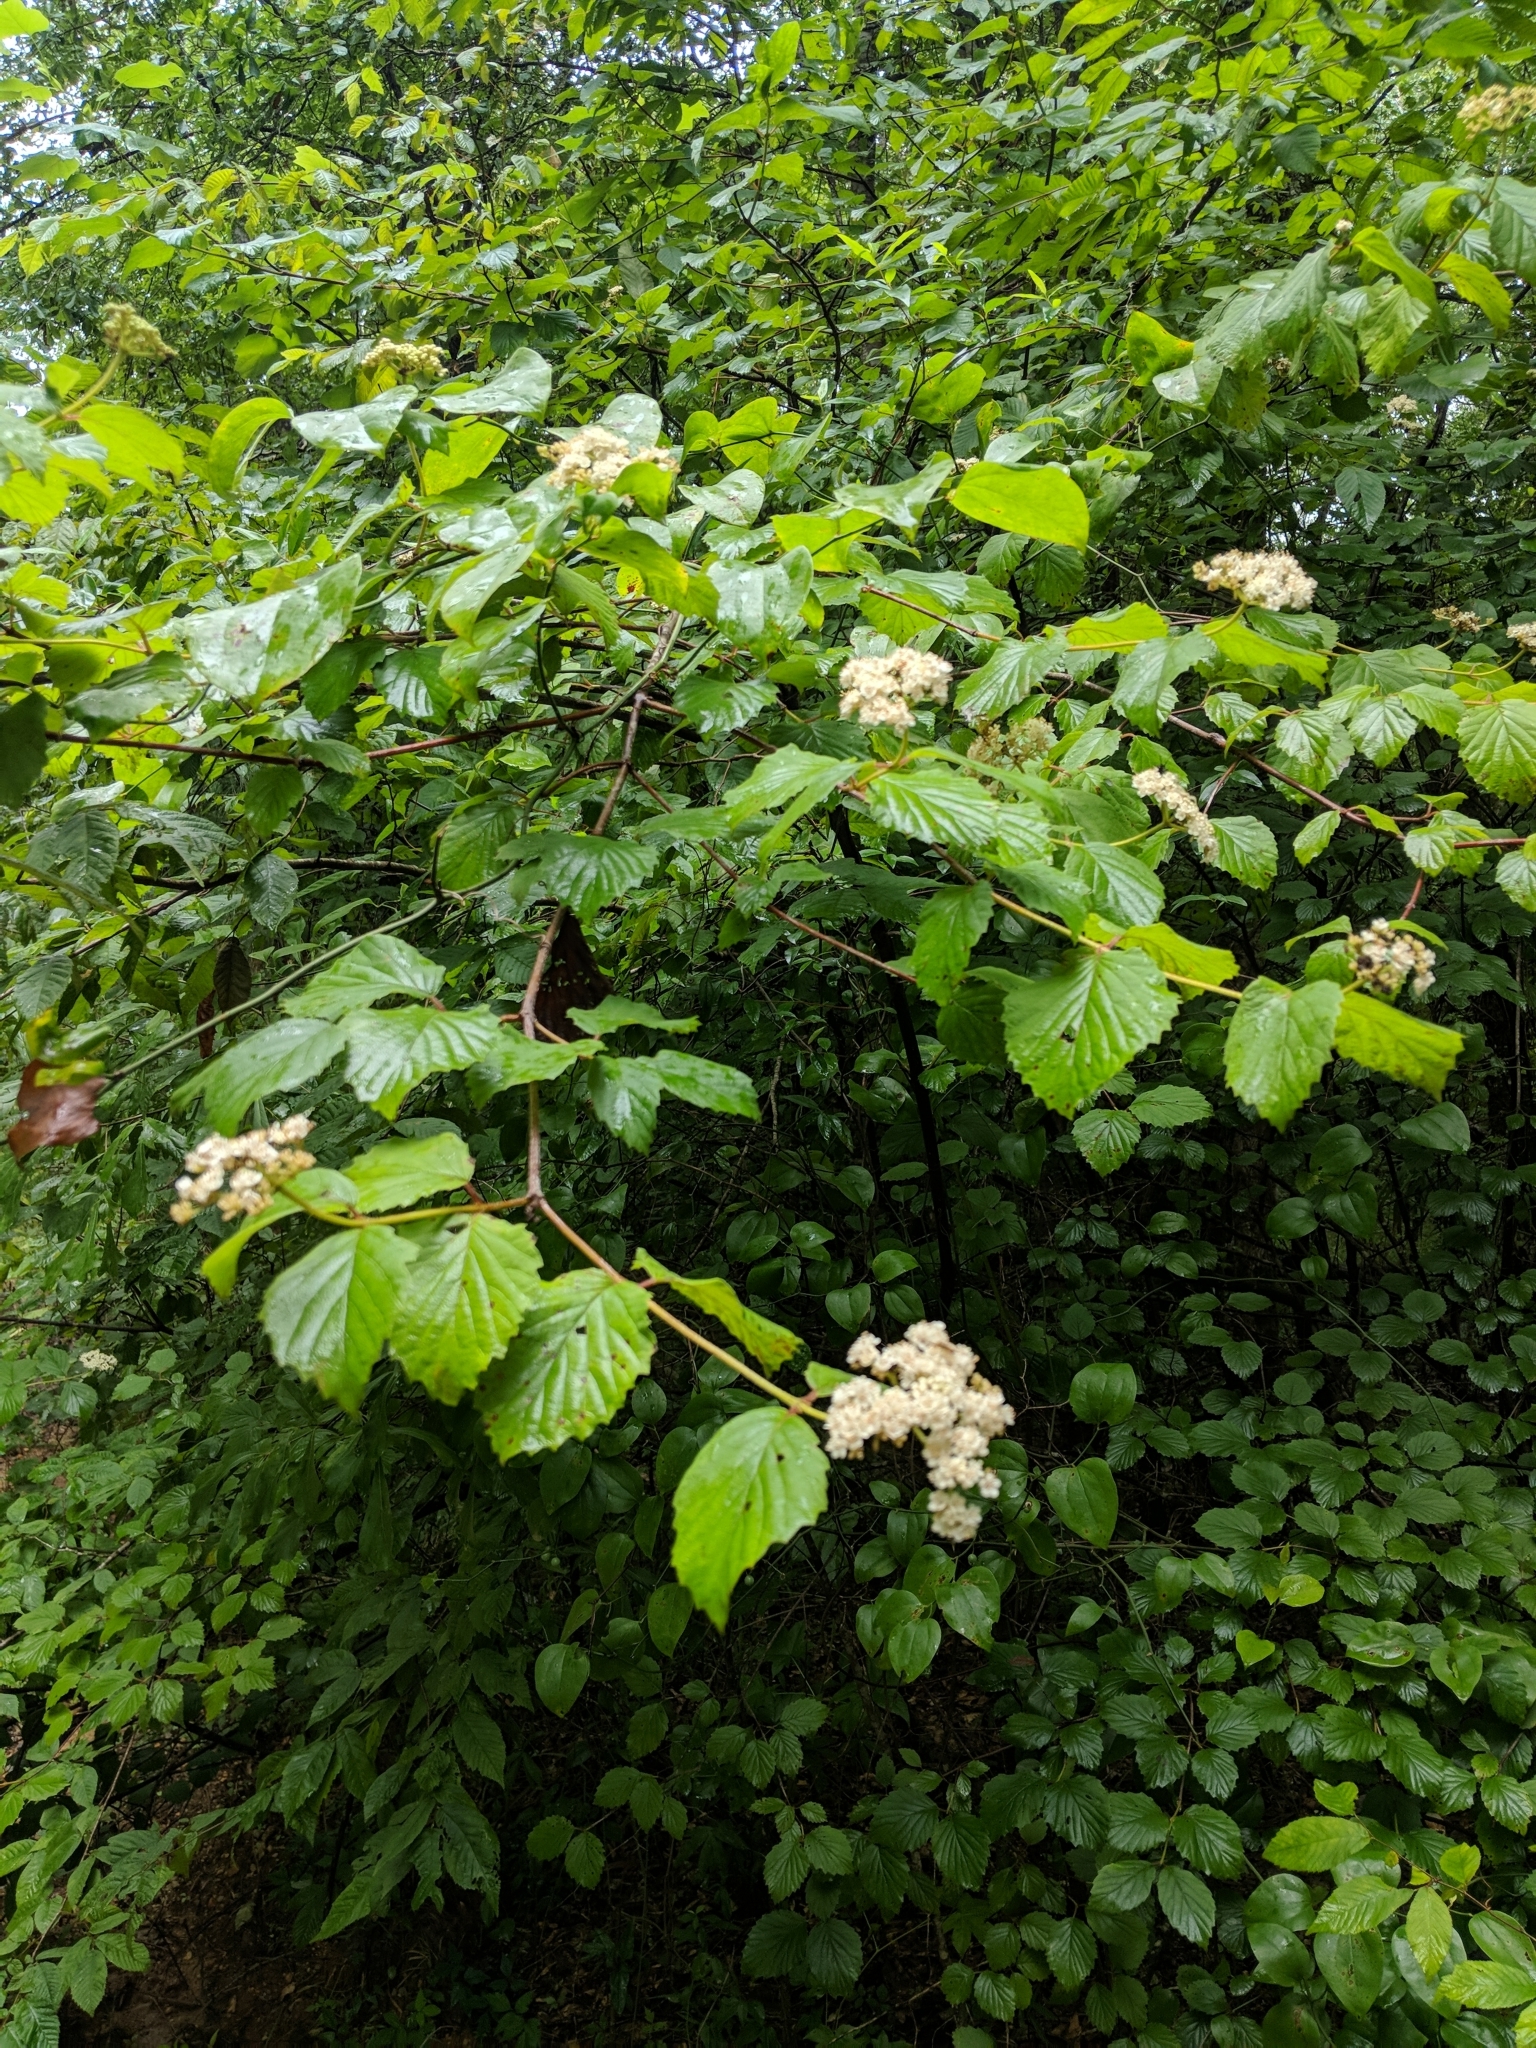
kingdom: Plantae
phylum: Tracheophyta
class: Magnoliopsida
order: Dipsacales
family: Viburnaceae
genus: Viburnum
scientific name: Viburnum scabrellum
